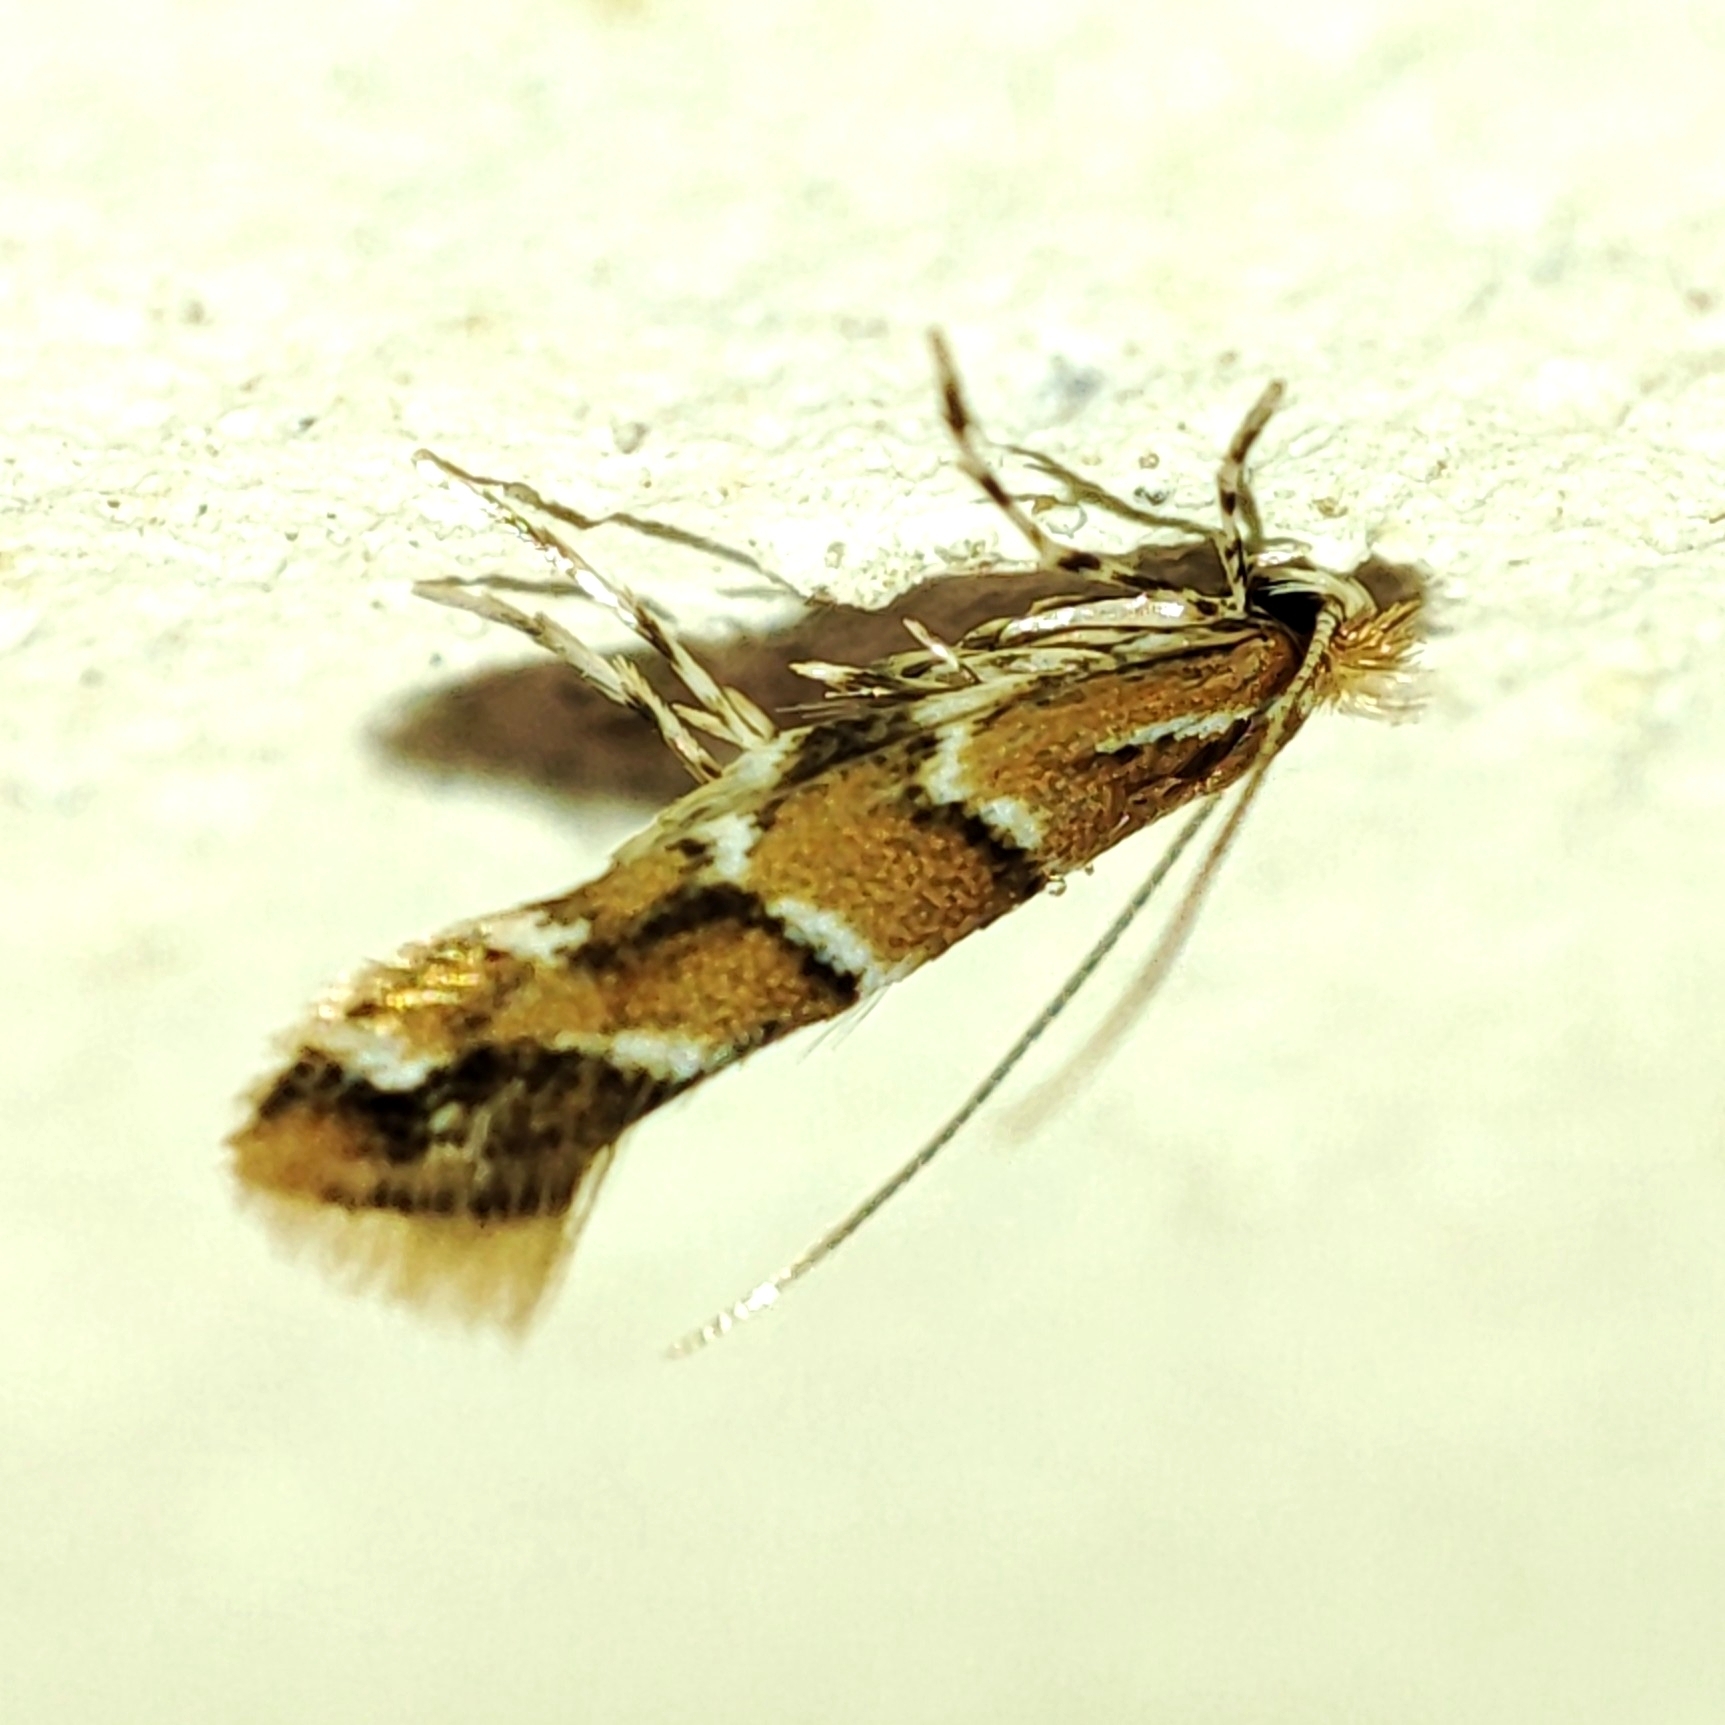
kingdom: Animalia
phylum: Arthropoda
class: Insecta
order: Lepidoptera
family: Gracillariidae
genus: Cameraria
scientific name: Cameraria ohridella
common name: Horse-chestnut leaf-miner
